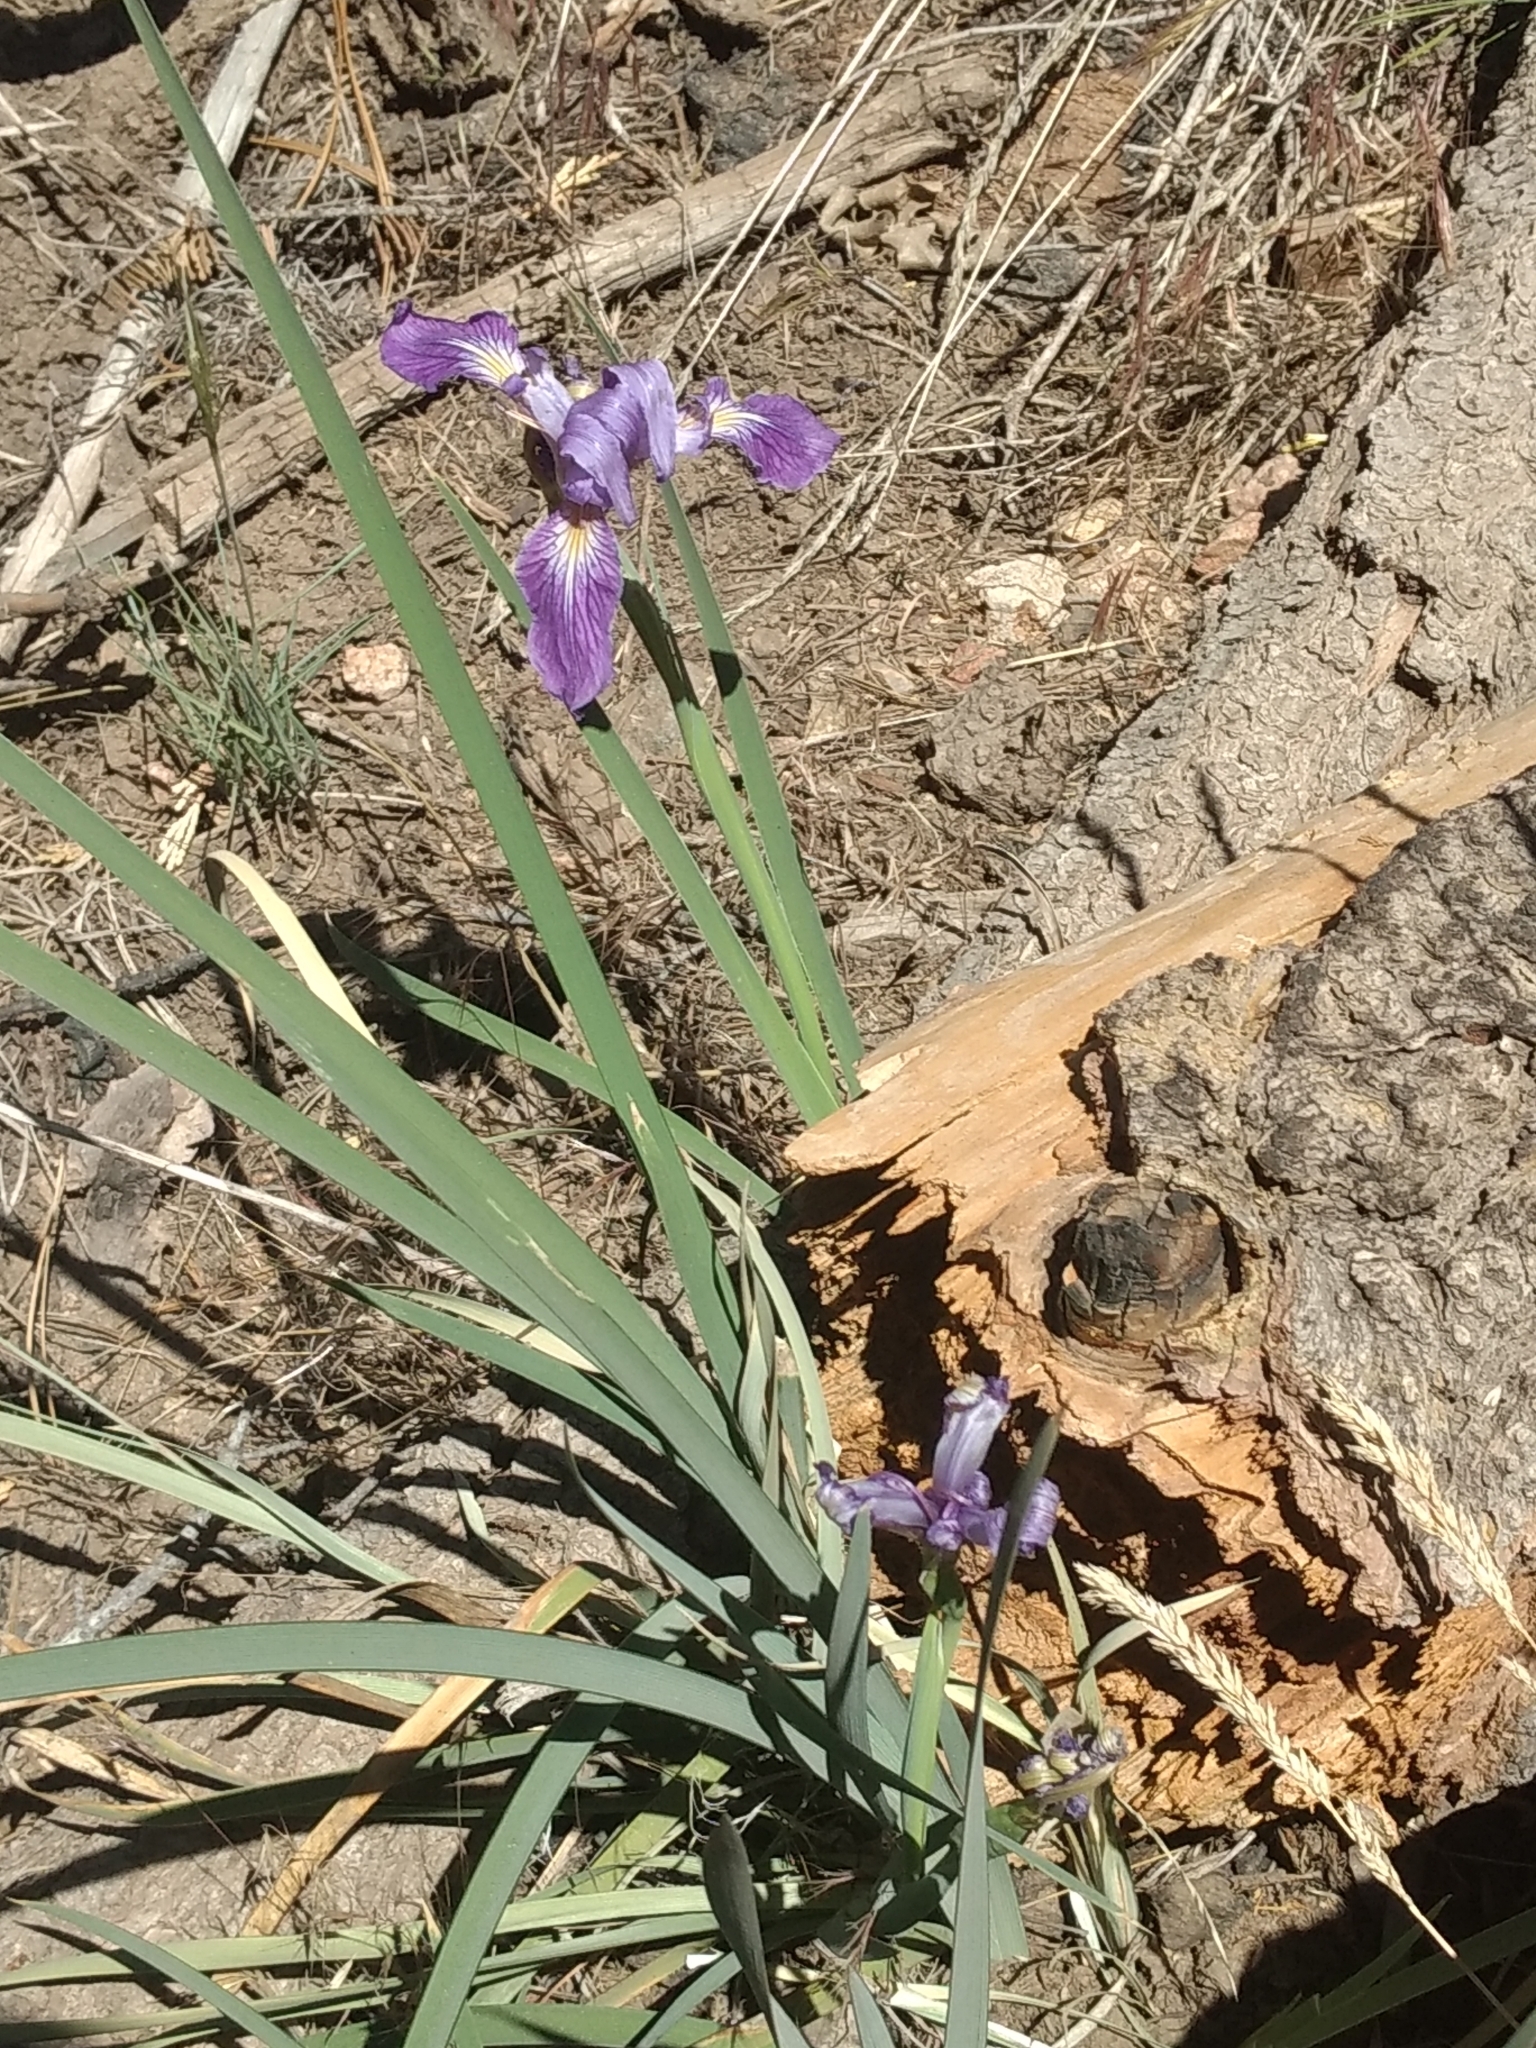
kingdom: Plantae
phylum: Tracheophyta
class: Liliopsida
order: Asparagales
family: Iridaceae
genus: Iris
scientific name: Iris hartwegii
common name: Sierra iris
